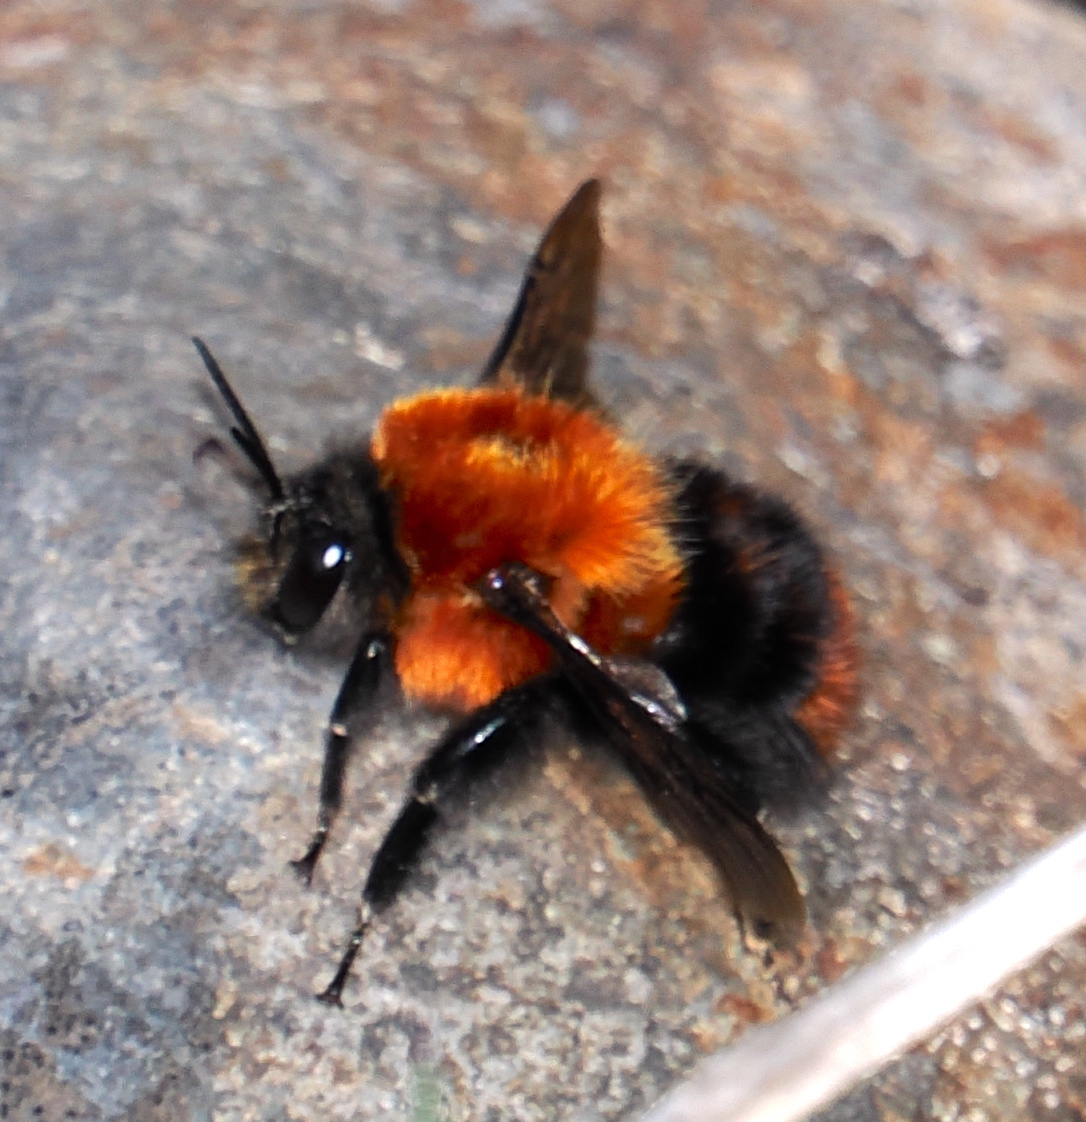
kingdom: Animalia
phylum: Arthropoda
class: Insecta
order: Hymenoptera
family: Apidae
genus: Bombus
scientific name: Bombus rubicundus
